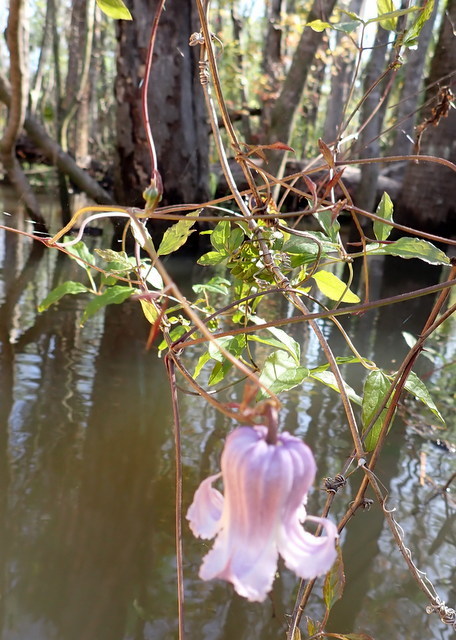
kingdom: Plantae
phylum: Tracheophyta
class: Magnoliopsida
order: Ranunculales
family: Ranunculaceae
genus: Clematis
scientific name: Clematis crispa
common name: Curly clematis
